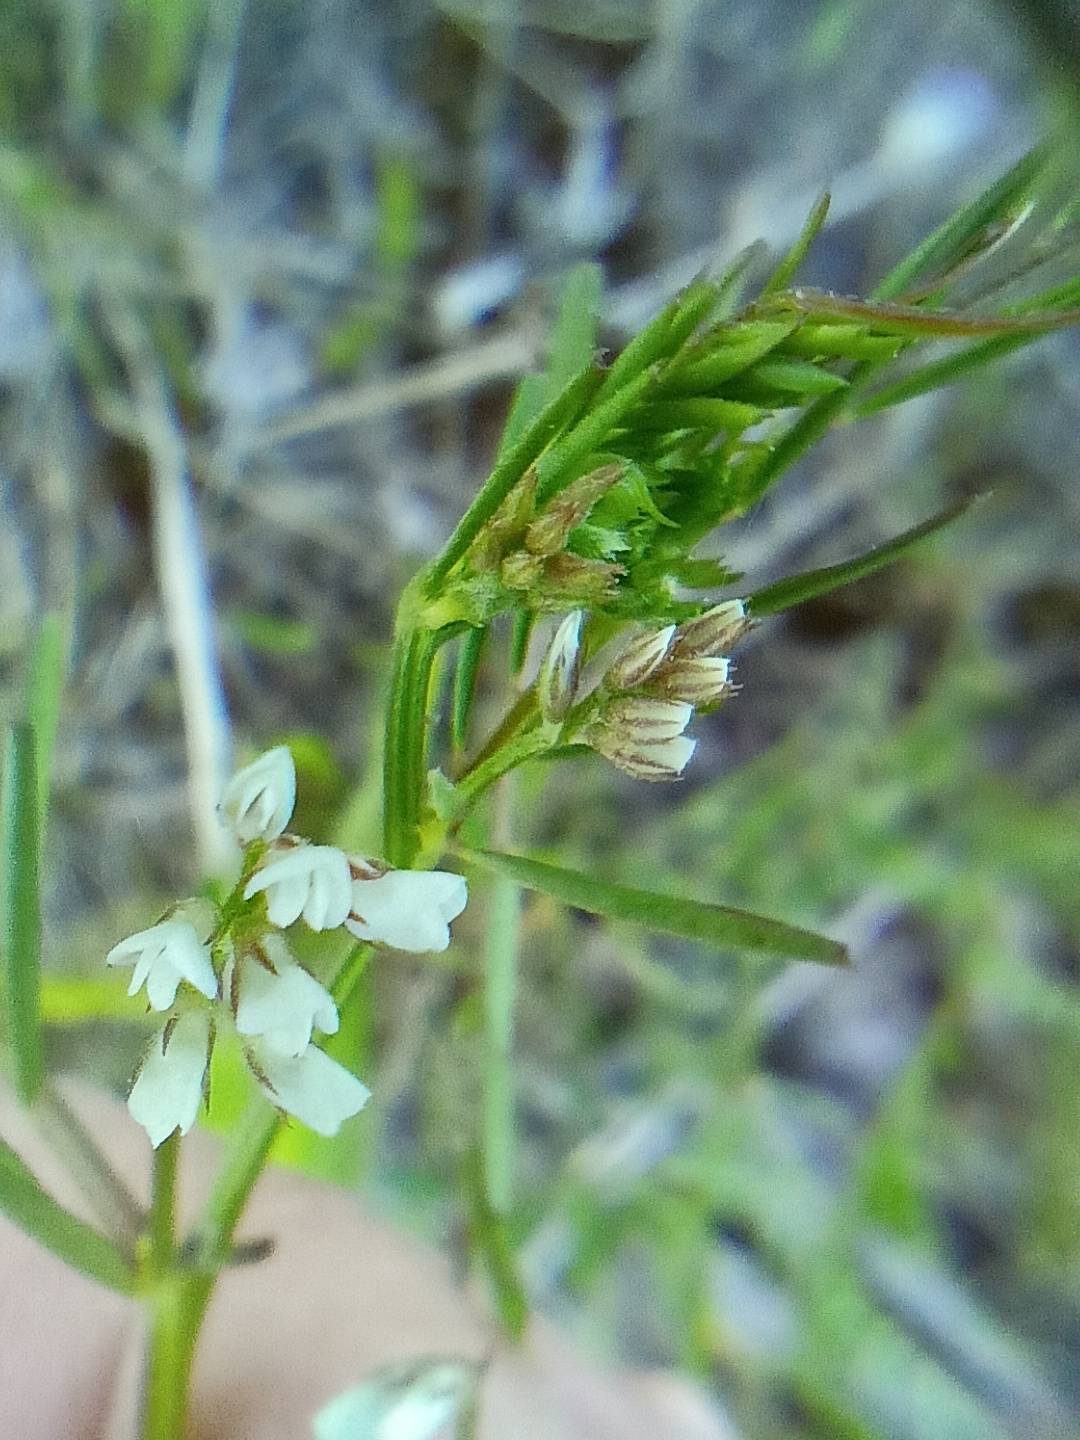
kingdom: Plantae
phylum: Tracheophyta
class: Magnoliopsida
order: Fabales
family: Fabaceae
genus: Vicia
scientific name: Vicia hirsuta
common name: Tiny vetch
